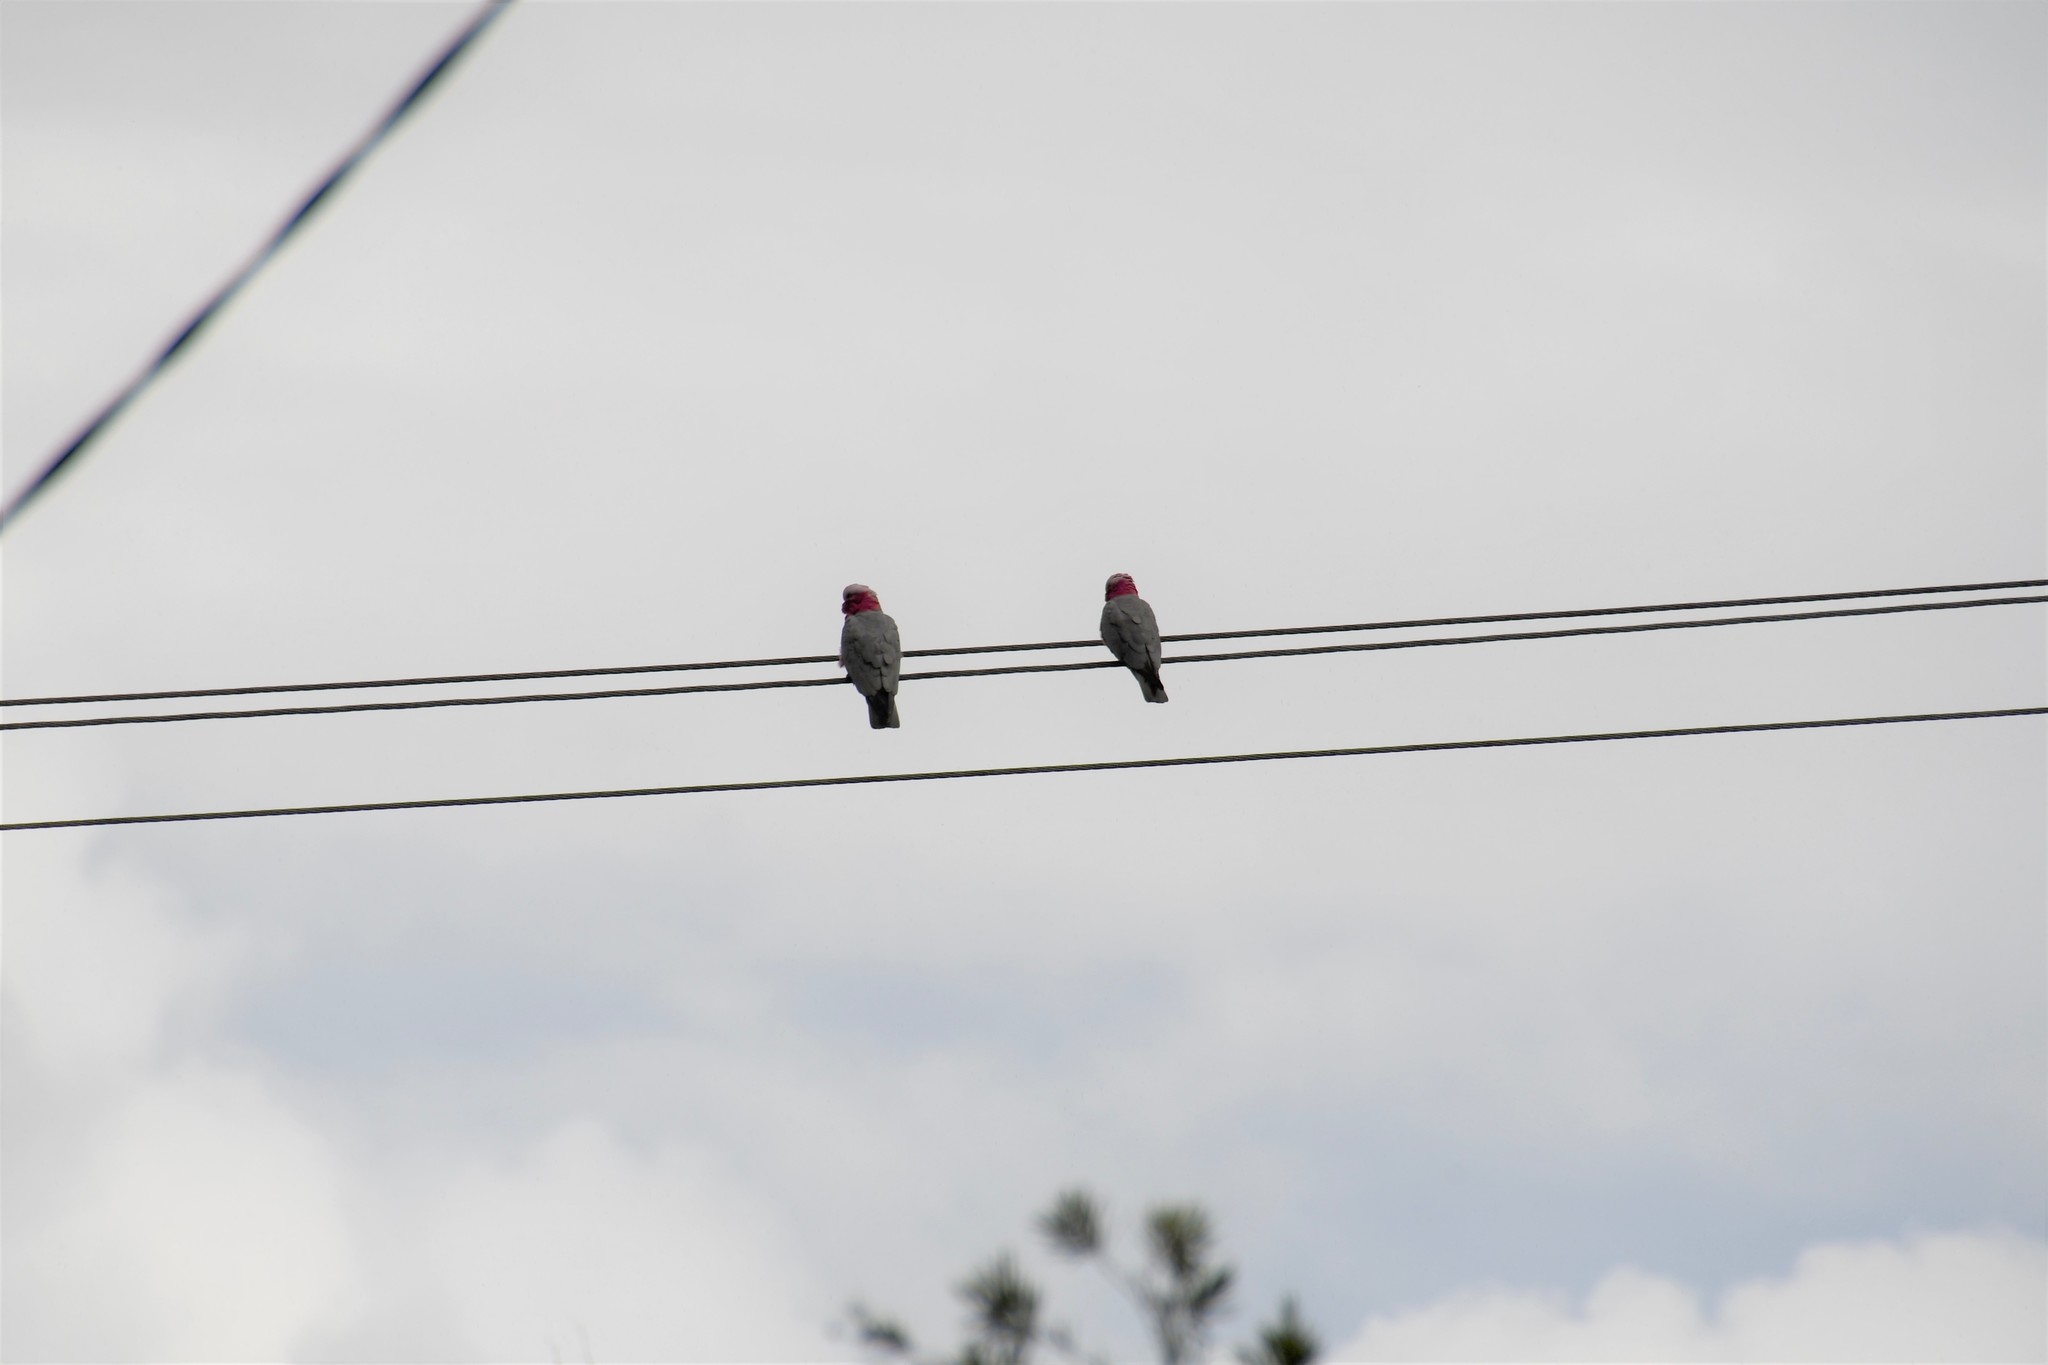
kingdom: Animalia
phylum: Chordata
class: Aves
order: Psittaciformes
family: Psittacidae
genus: Eolophus
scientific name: Eolophus roseicapilla
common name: Galah
